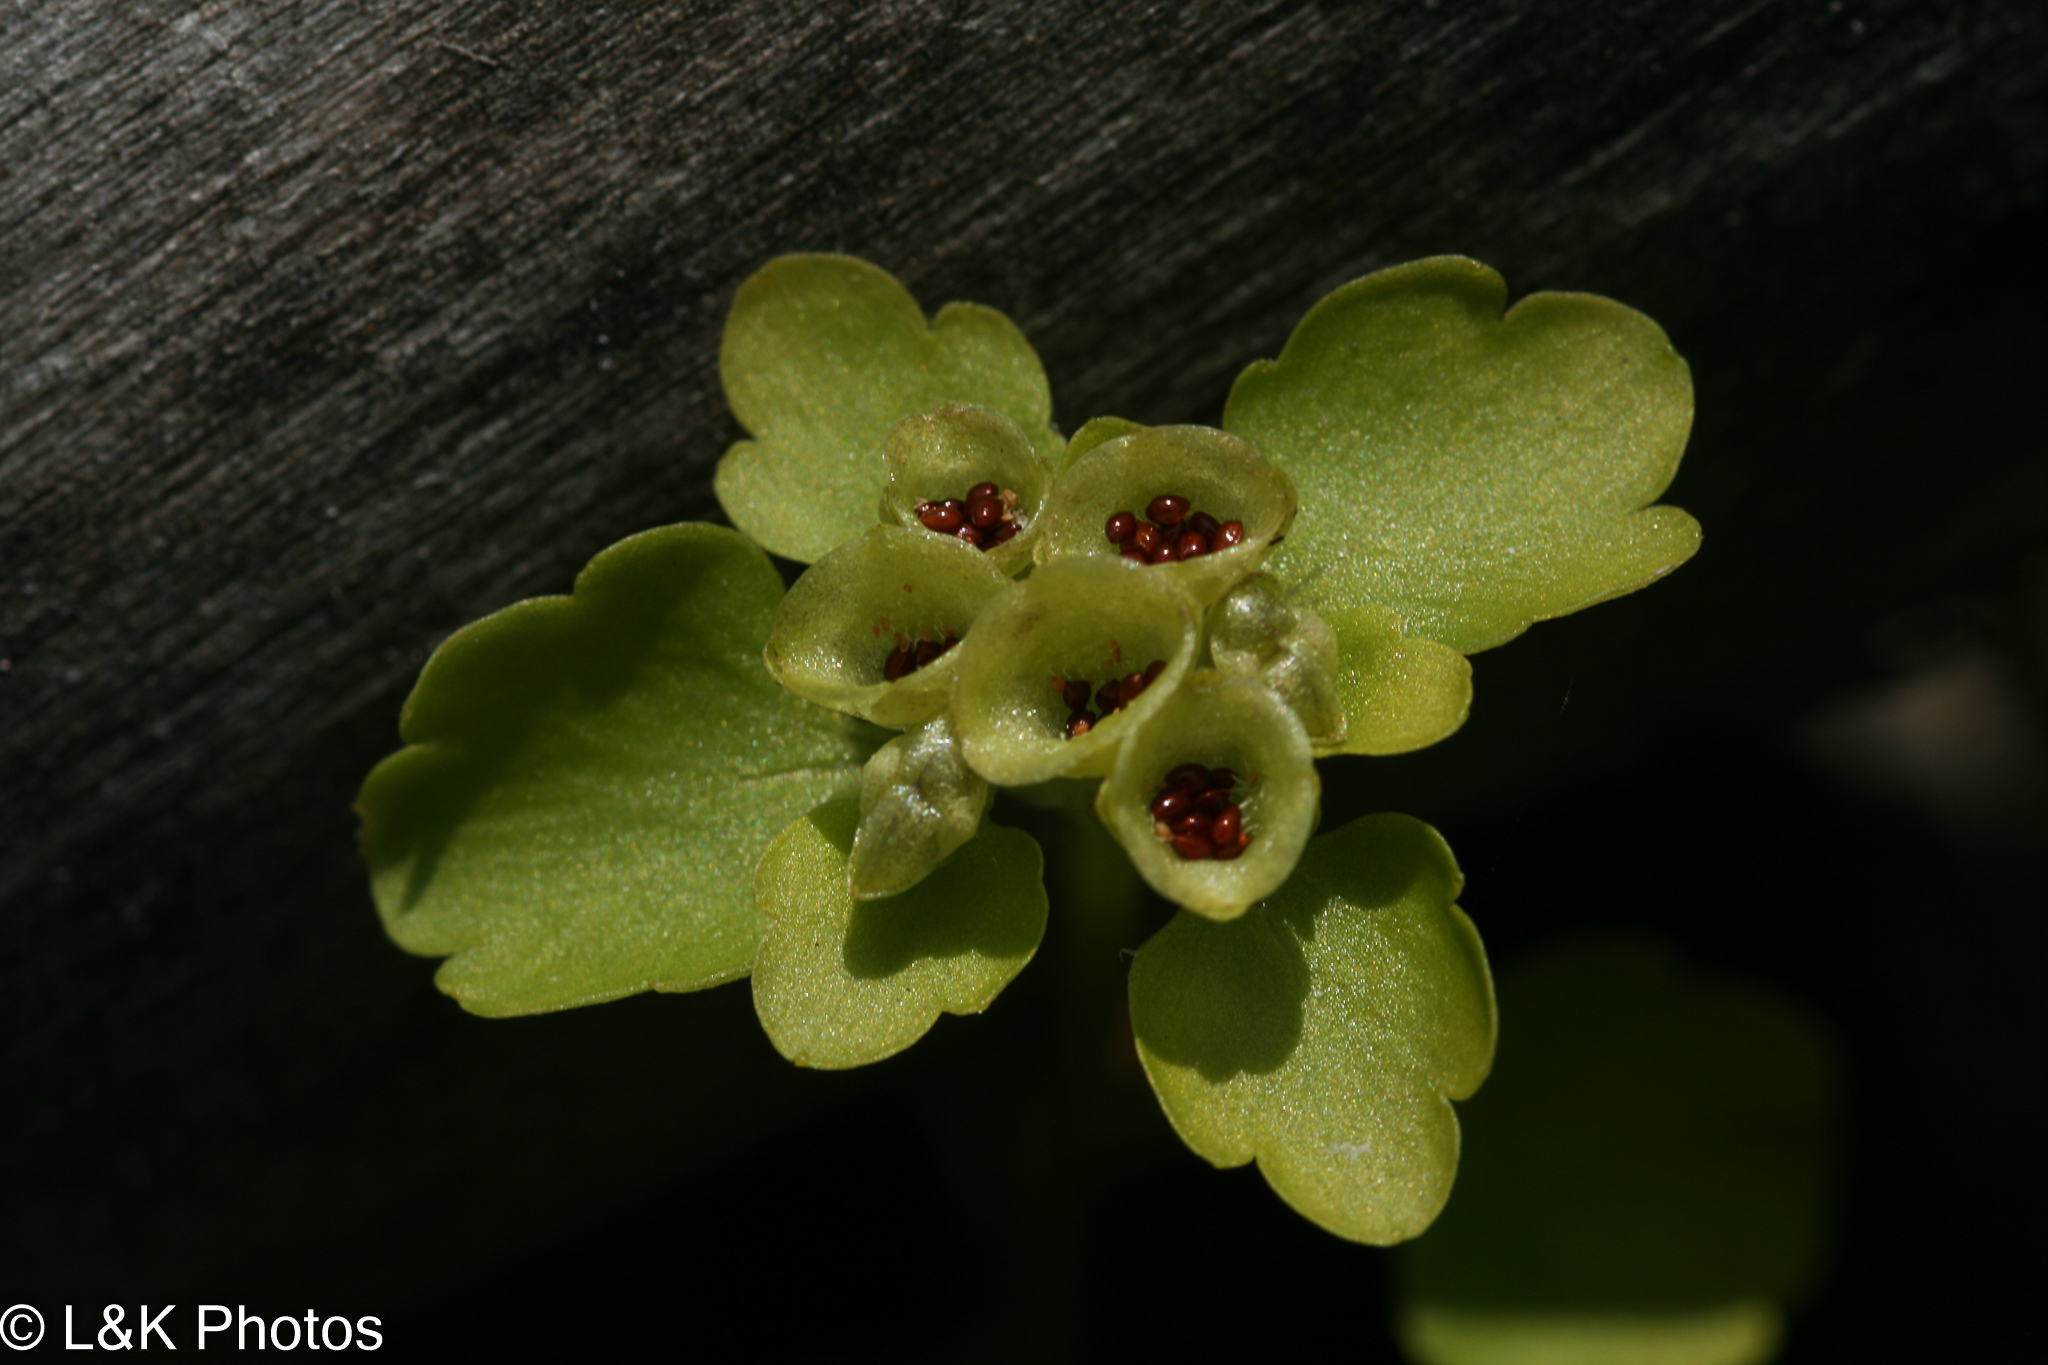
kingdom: Plantae
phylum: Tracheophyta
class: Magnoliopsida
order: Saxifragales
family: Saxifragaceae
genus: Chrysosplenium
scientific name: Chrysosplenium tetrandrum
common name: Green saxifrage
